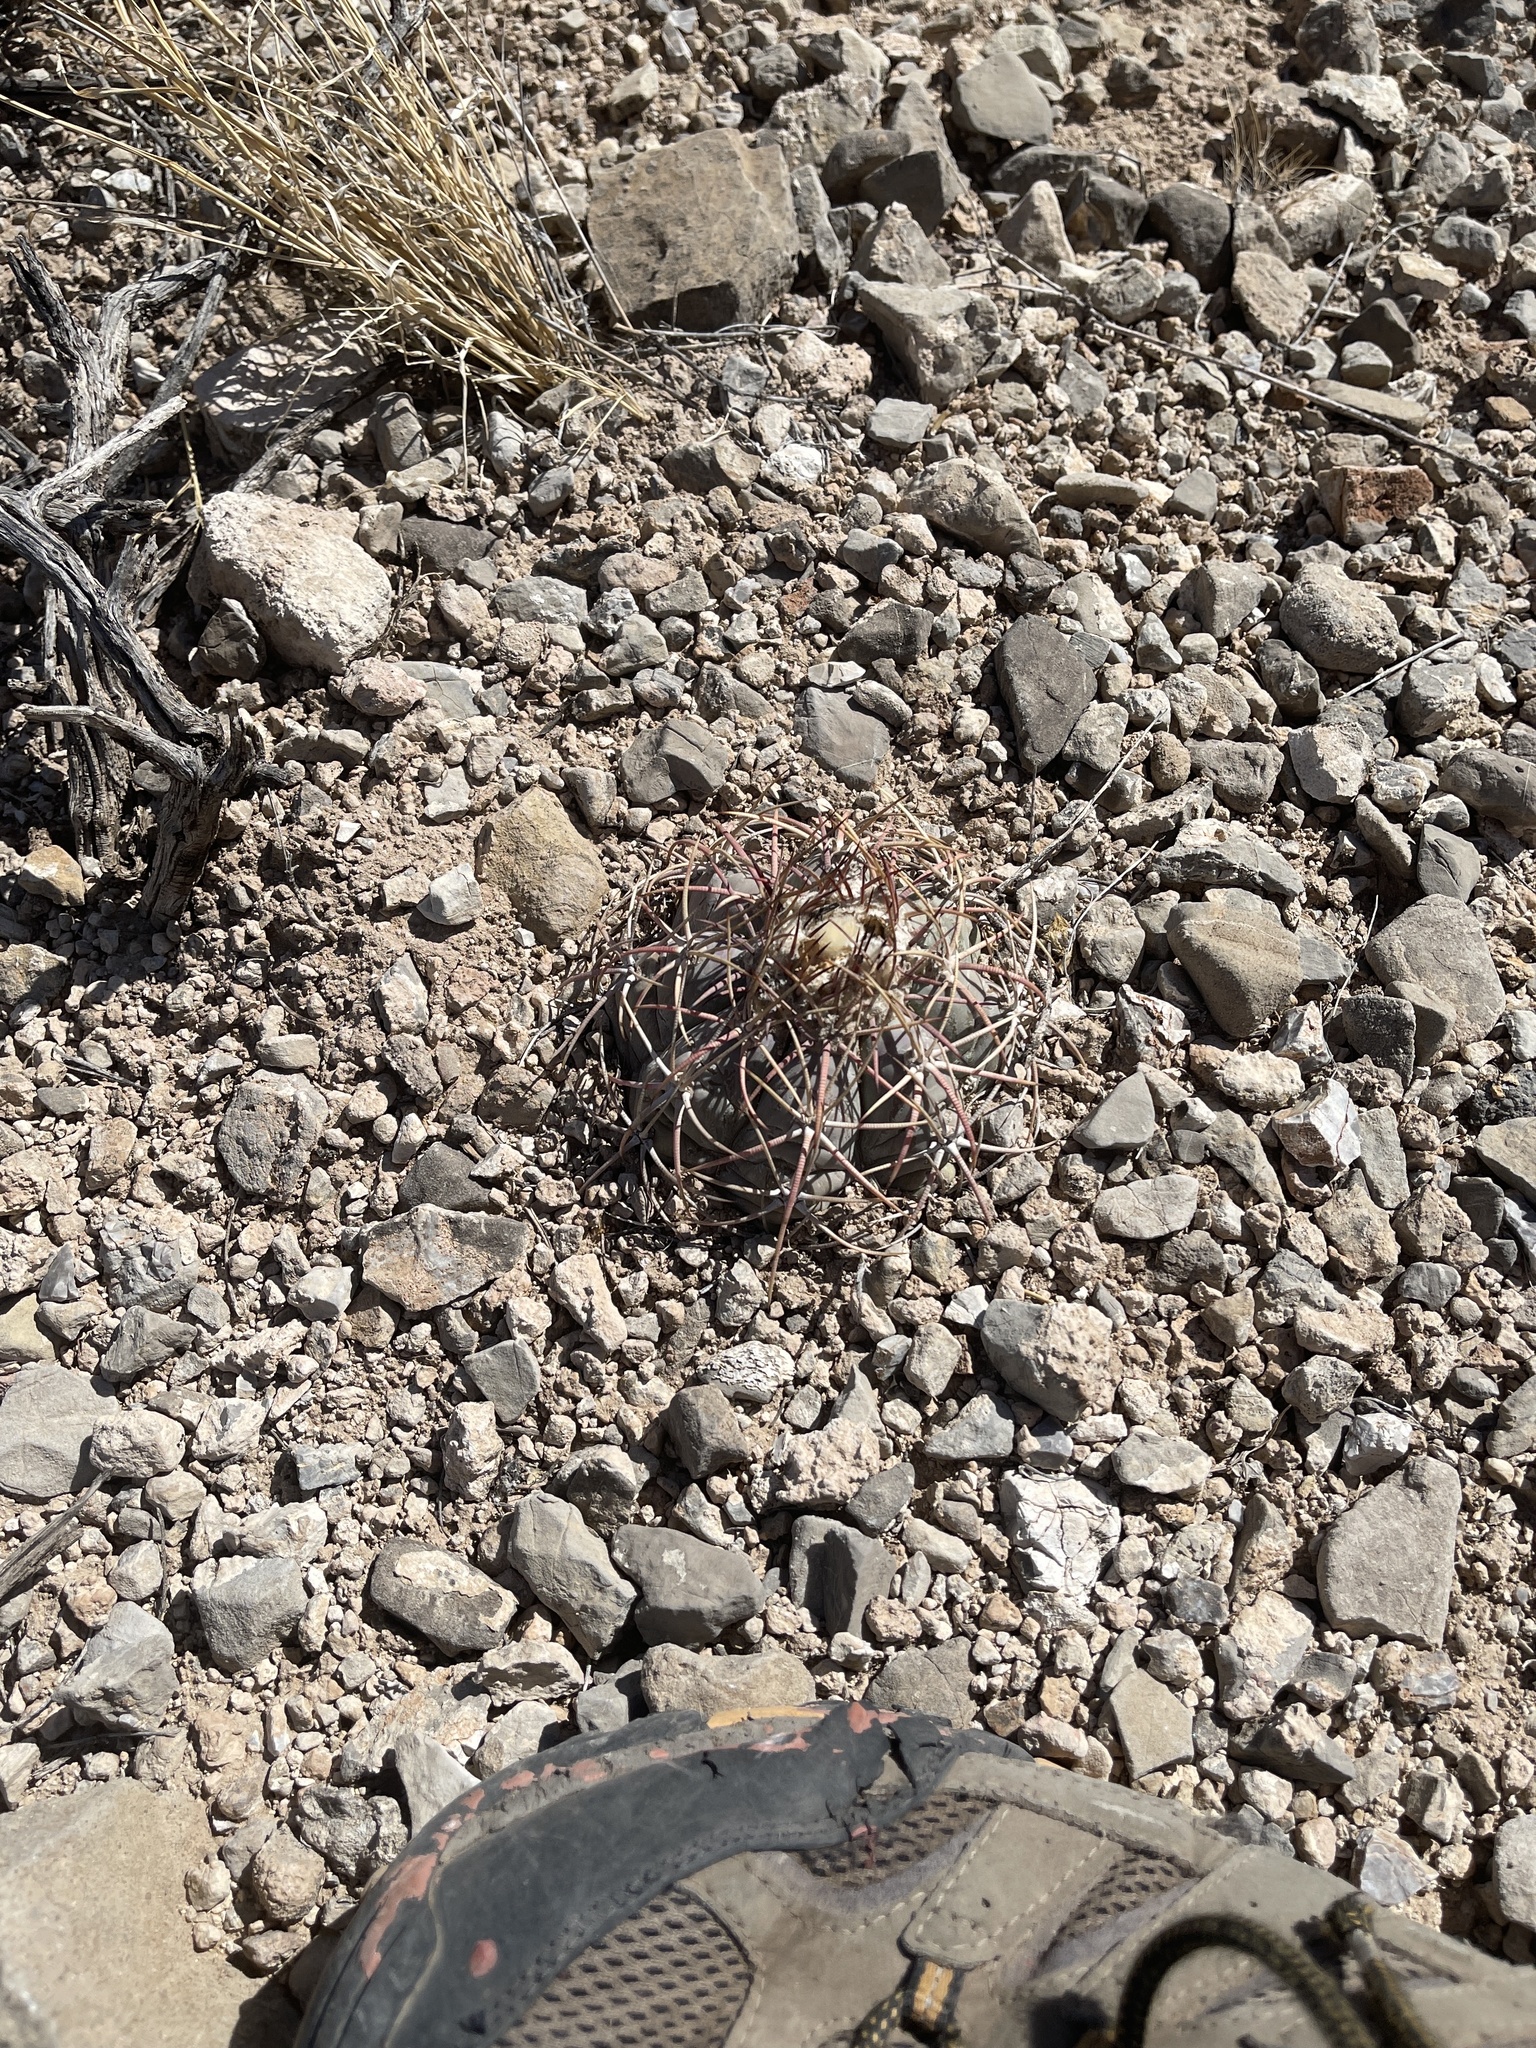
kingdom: Plantae
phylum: Tracheophyta
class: Magnoliopsida
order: Caryophyllales
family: Cactaceae
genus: Echinocactus
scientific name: Echinocactus horizonthalonius
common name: Devilshead
